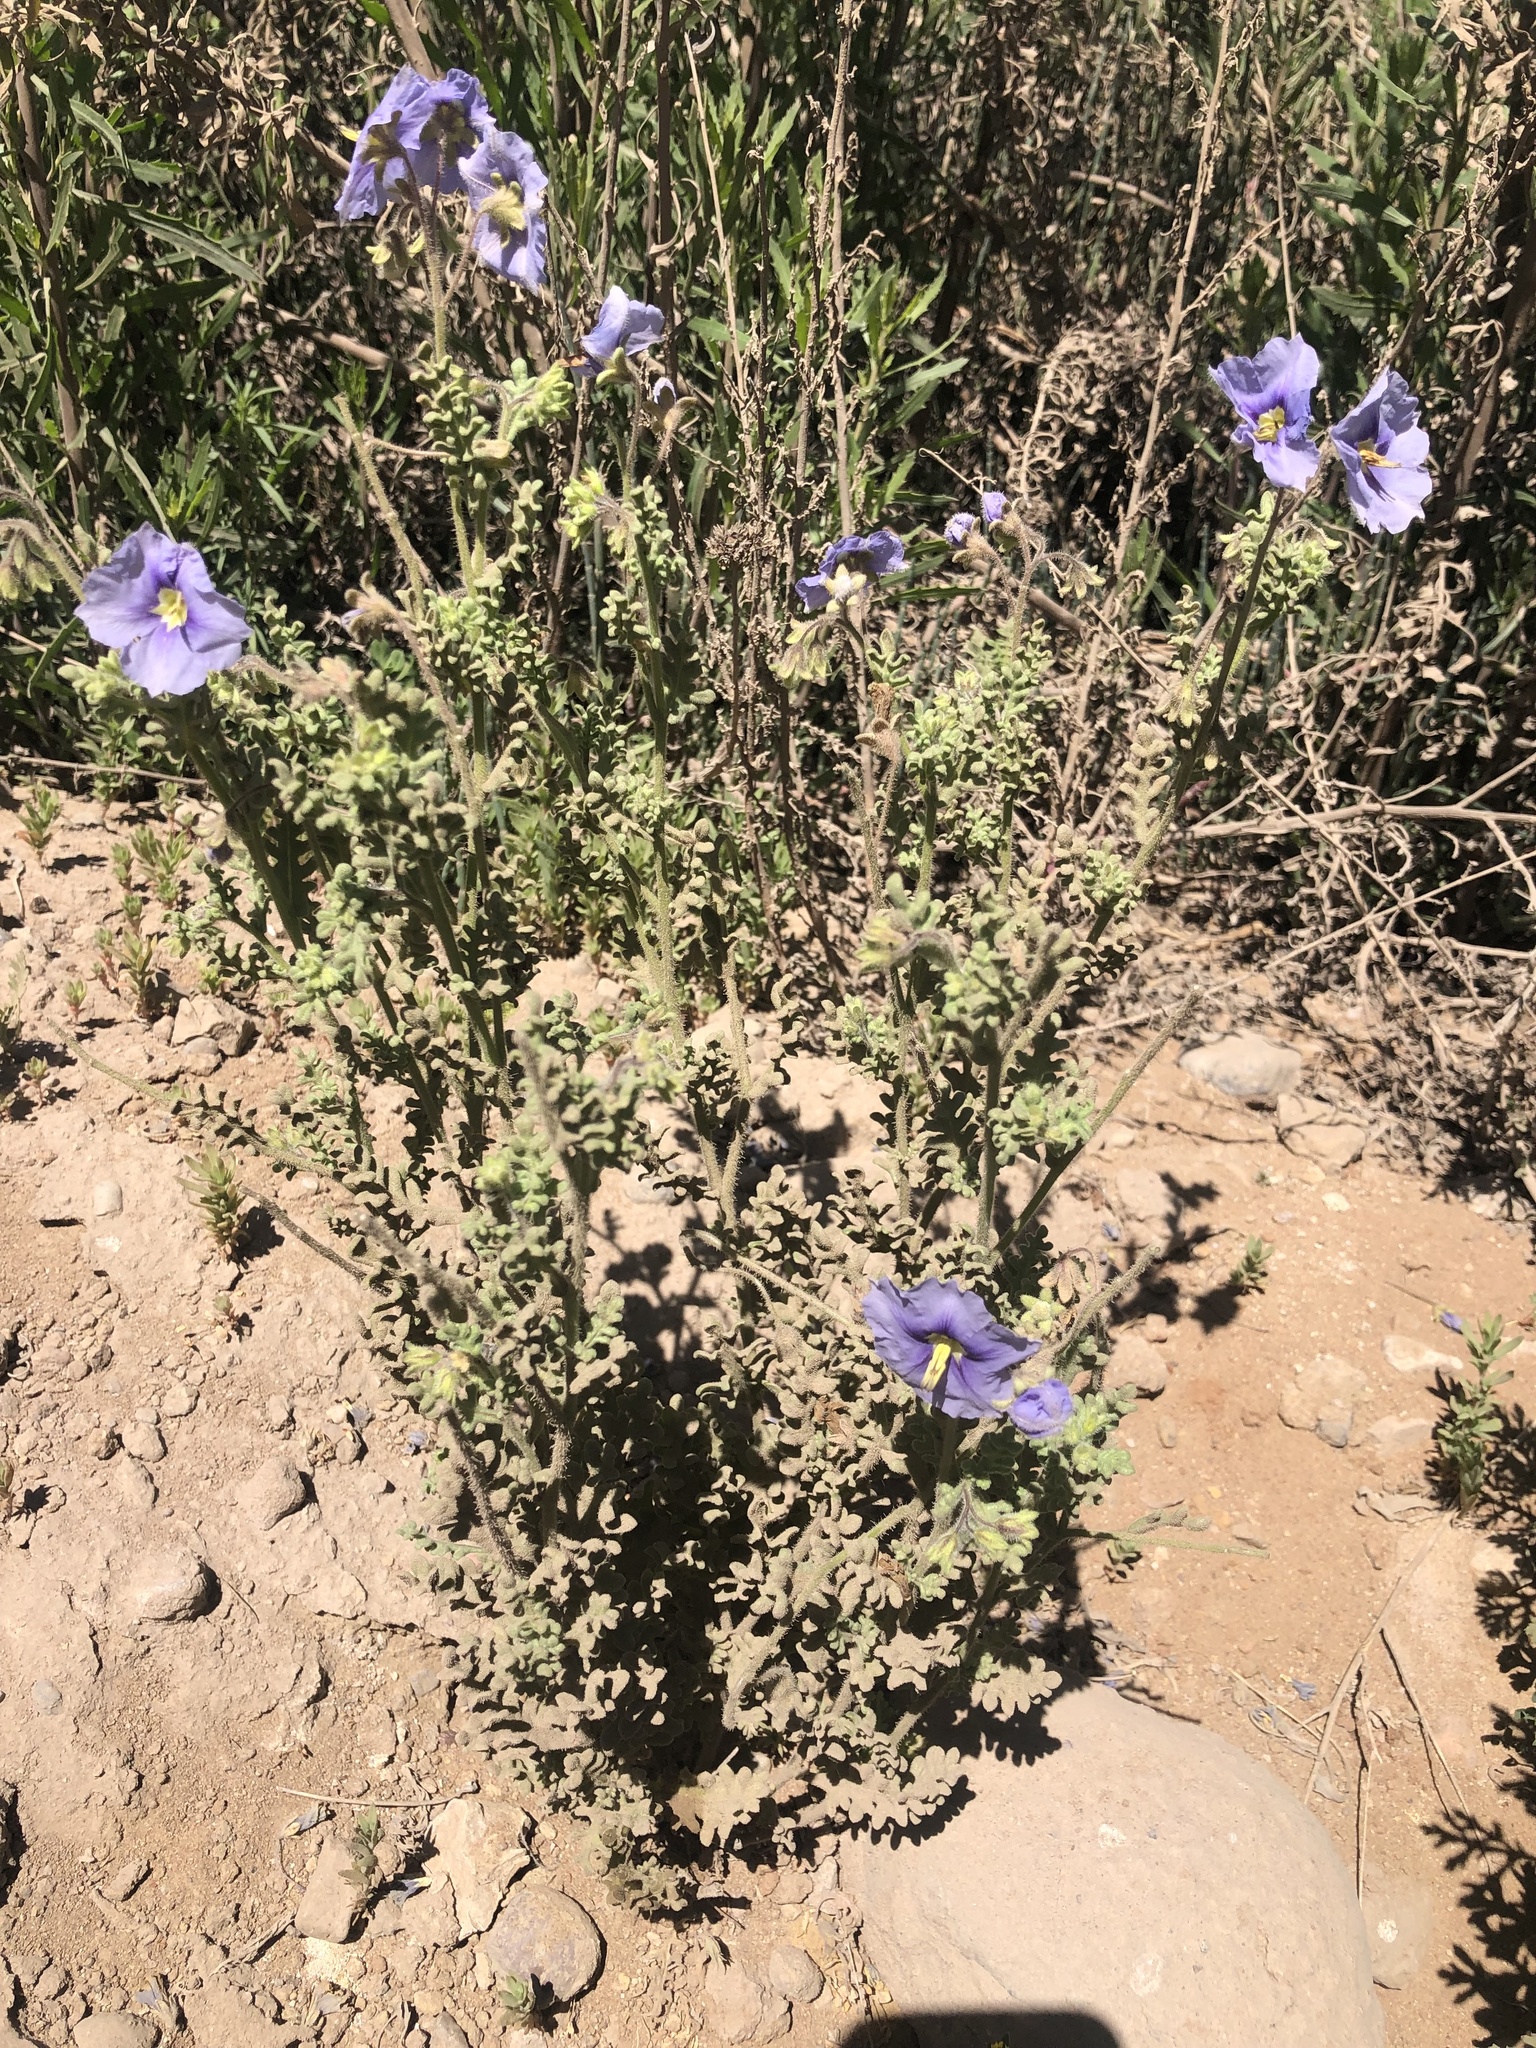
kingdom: Plantae
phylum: Tracheophyta
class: Magnoliopsida
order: Solanales
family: Solanaceae
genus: Solanum
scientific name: Solanum trinominum
